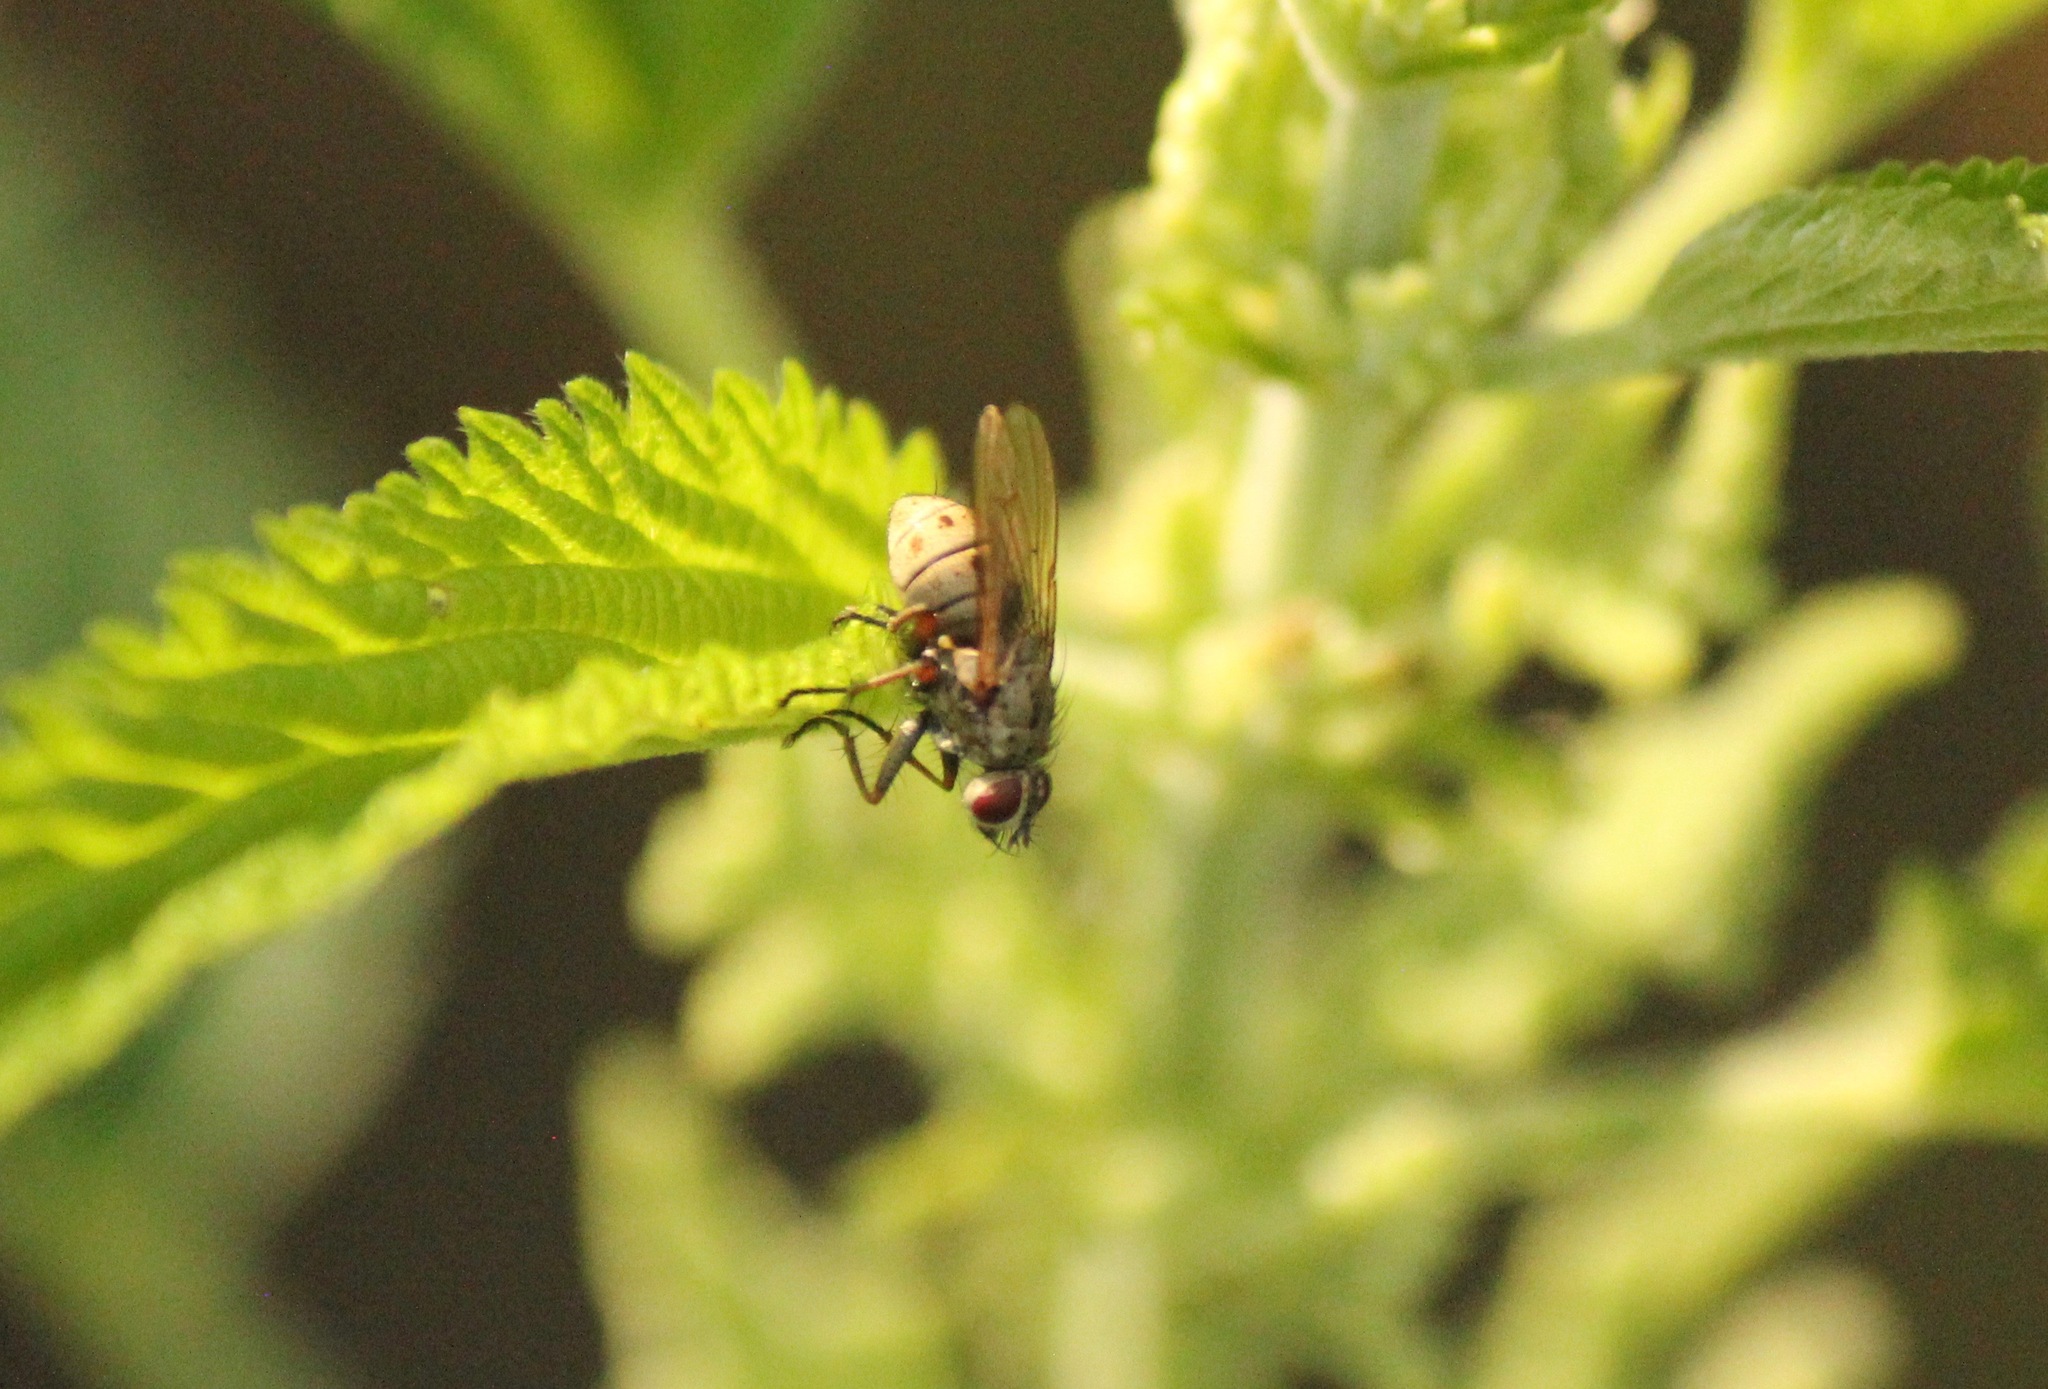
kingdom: Animalia
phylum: Arthropoda
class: Insecta
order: Diptera
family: Muscidae
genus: Coenosia
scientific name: Coenosia tigrina
